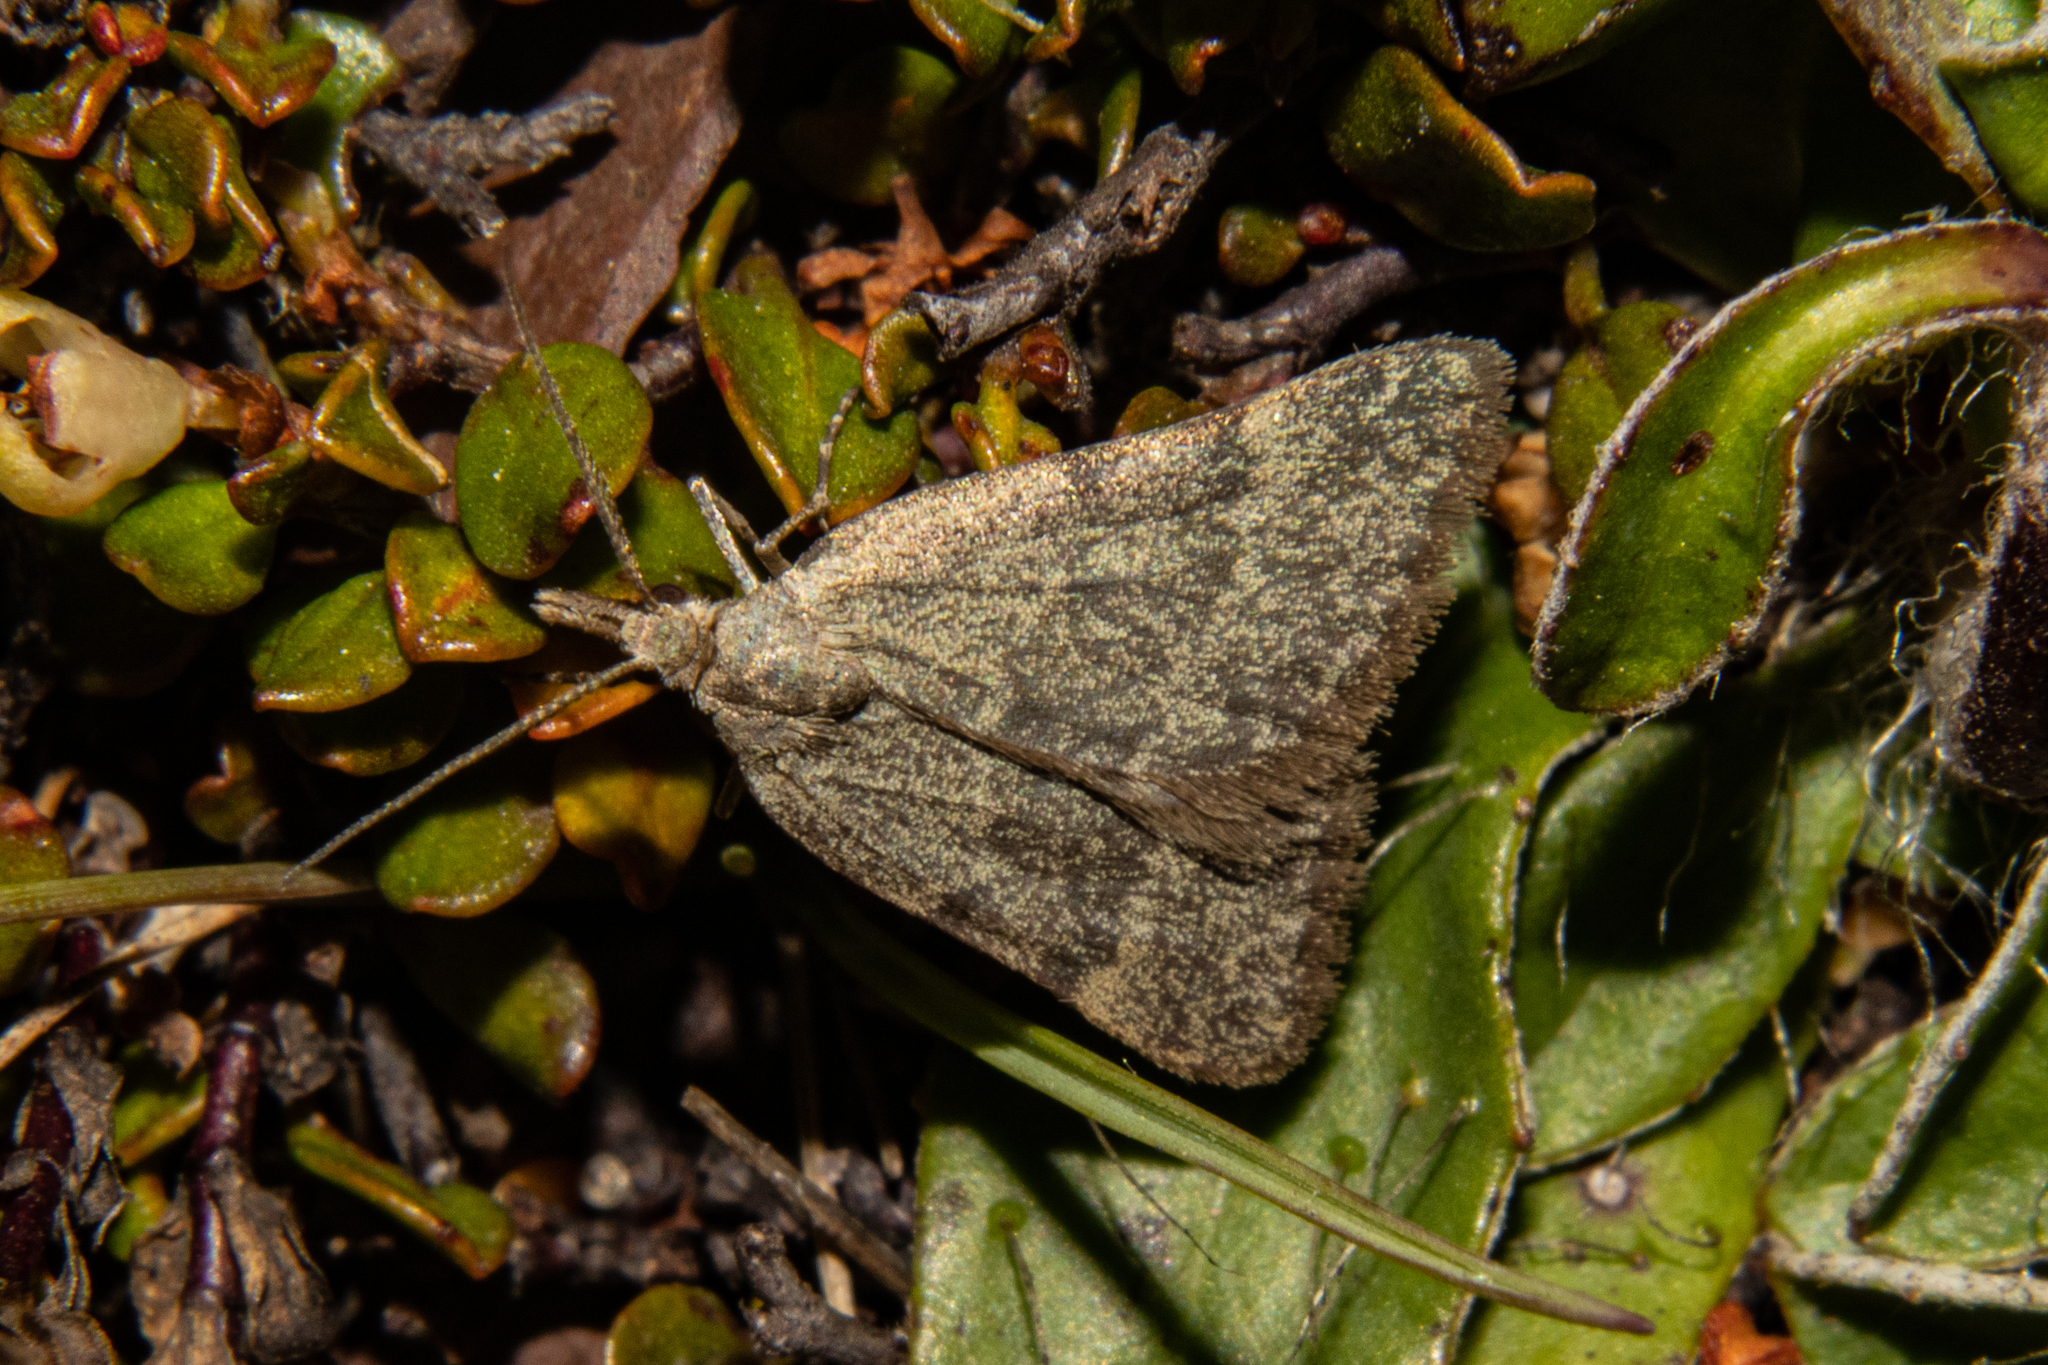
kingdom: Animalia
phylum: Arthropoda
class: Insecta
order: Lepidoptera
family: Geometridae
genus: Dichromodes
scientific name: Dichromodes sphaeriata
